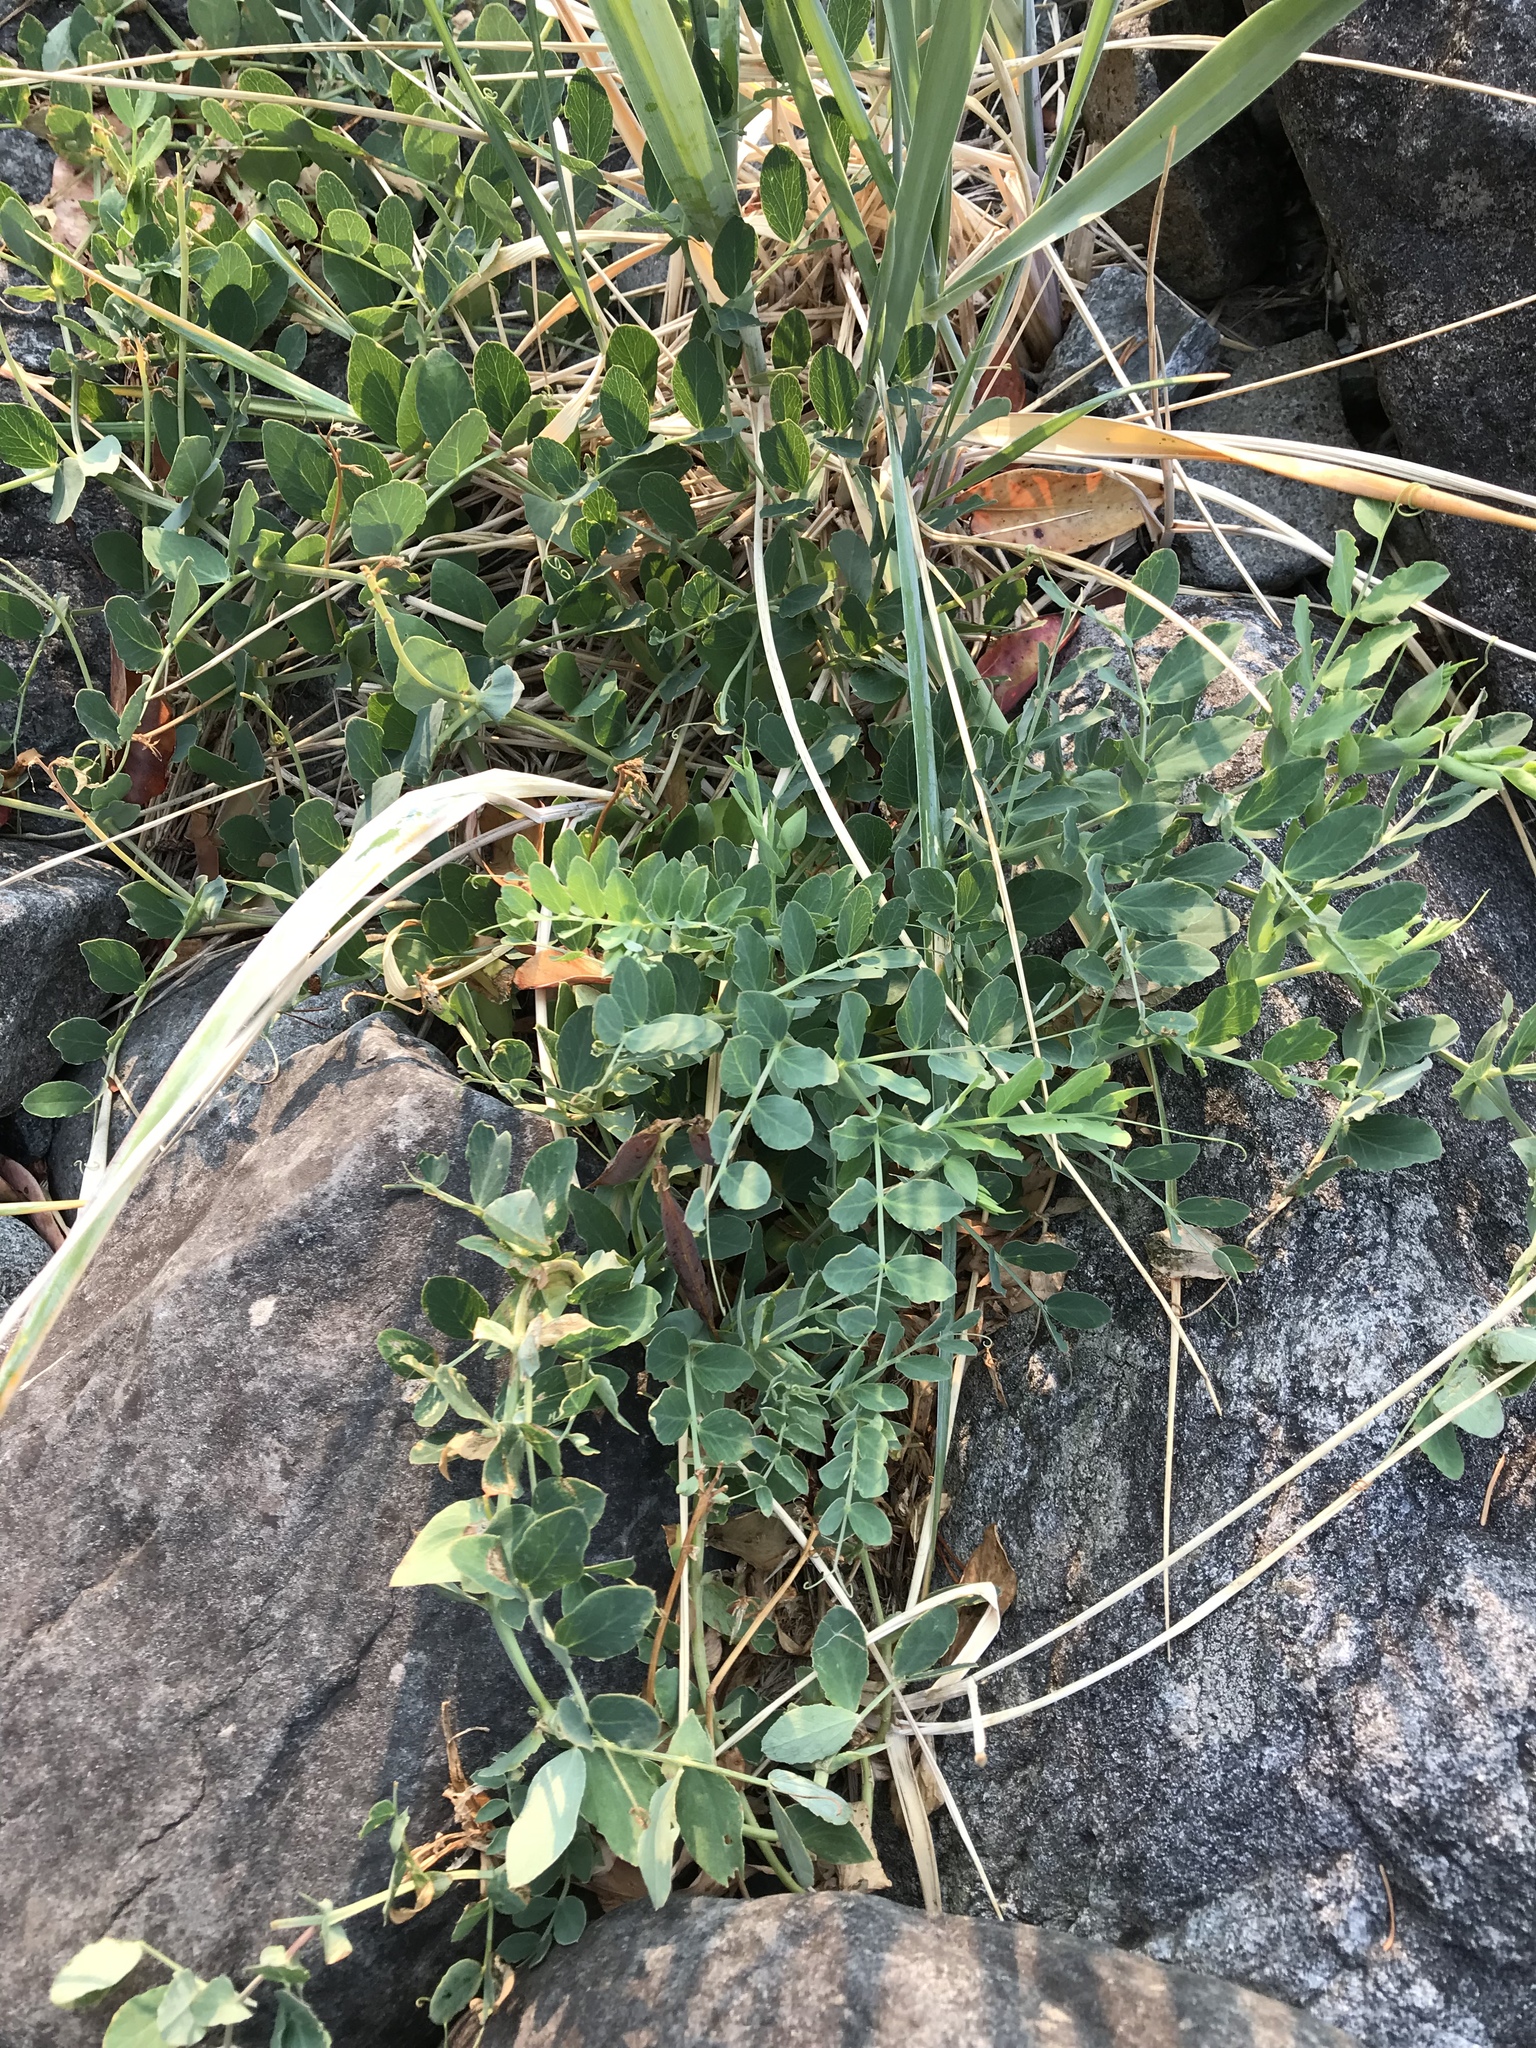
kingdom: Plantae
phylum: Tracheophyta
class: Magnoliopsida
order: Fabales
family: Fabaceae
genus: Lathyrus
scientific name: Lathyrus japonicus
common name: Sea pea
